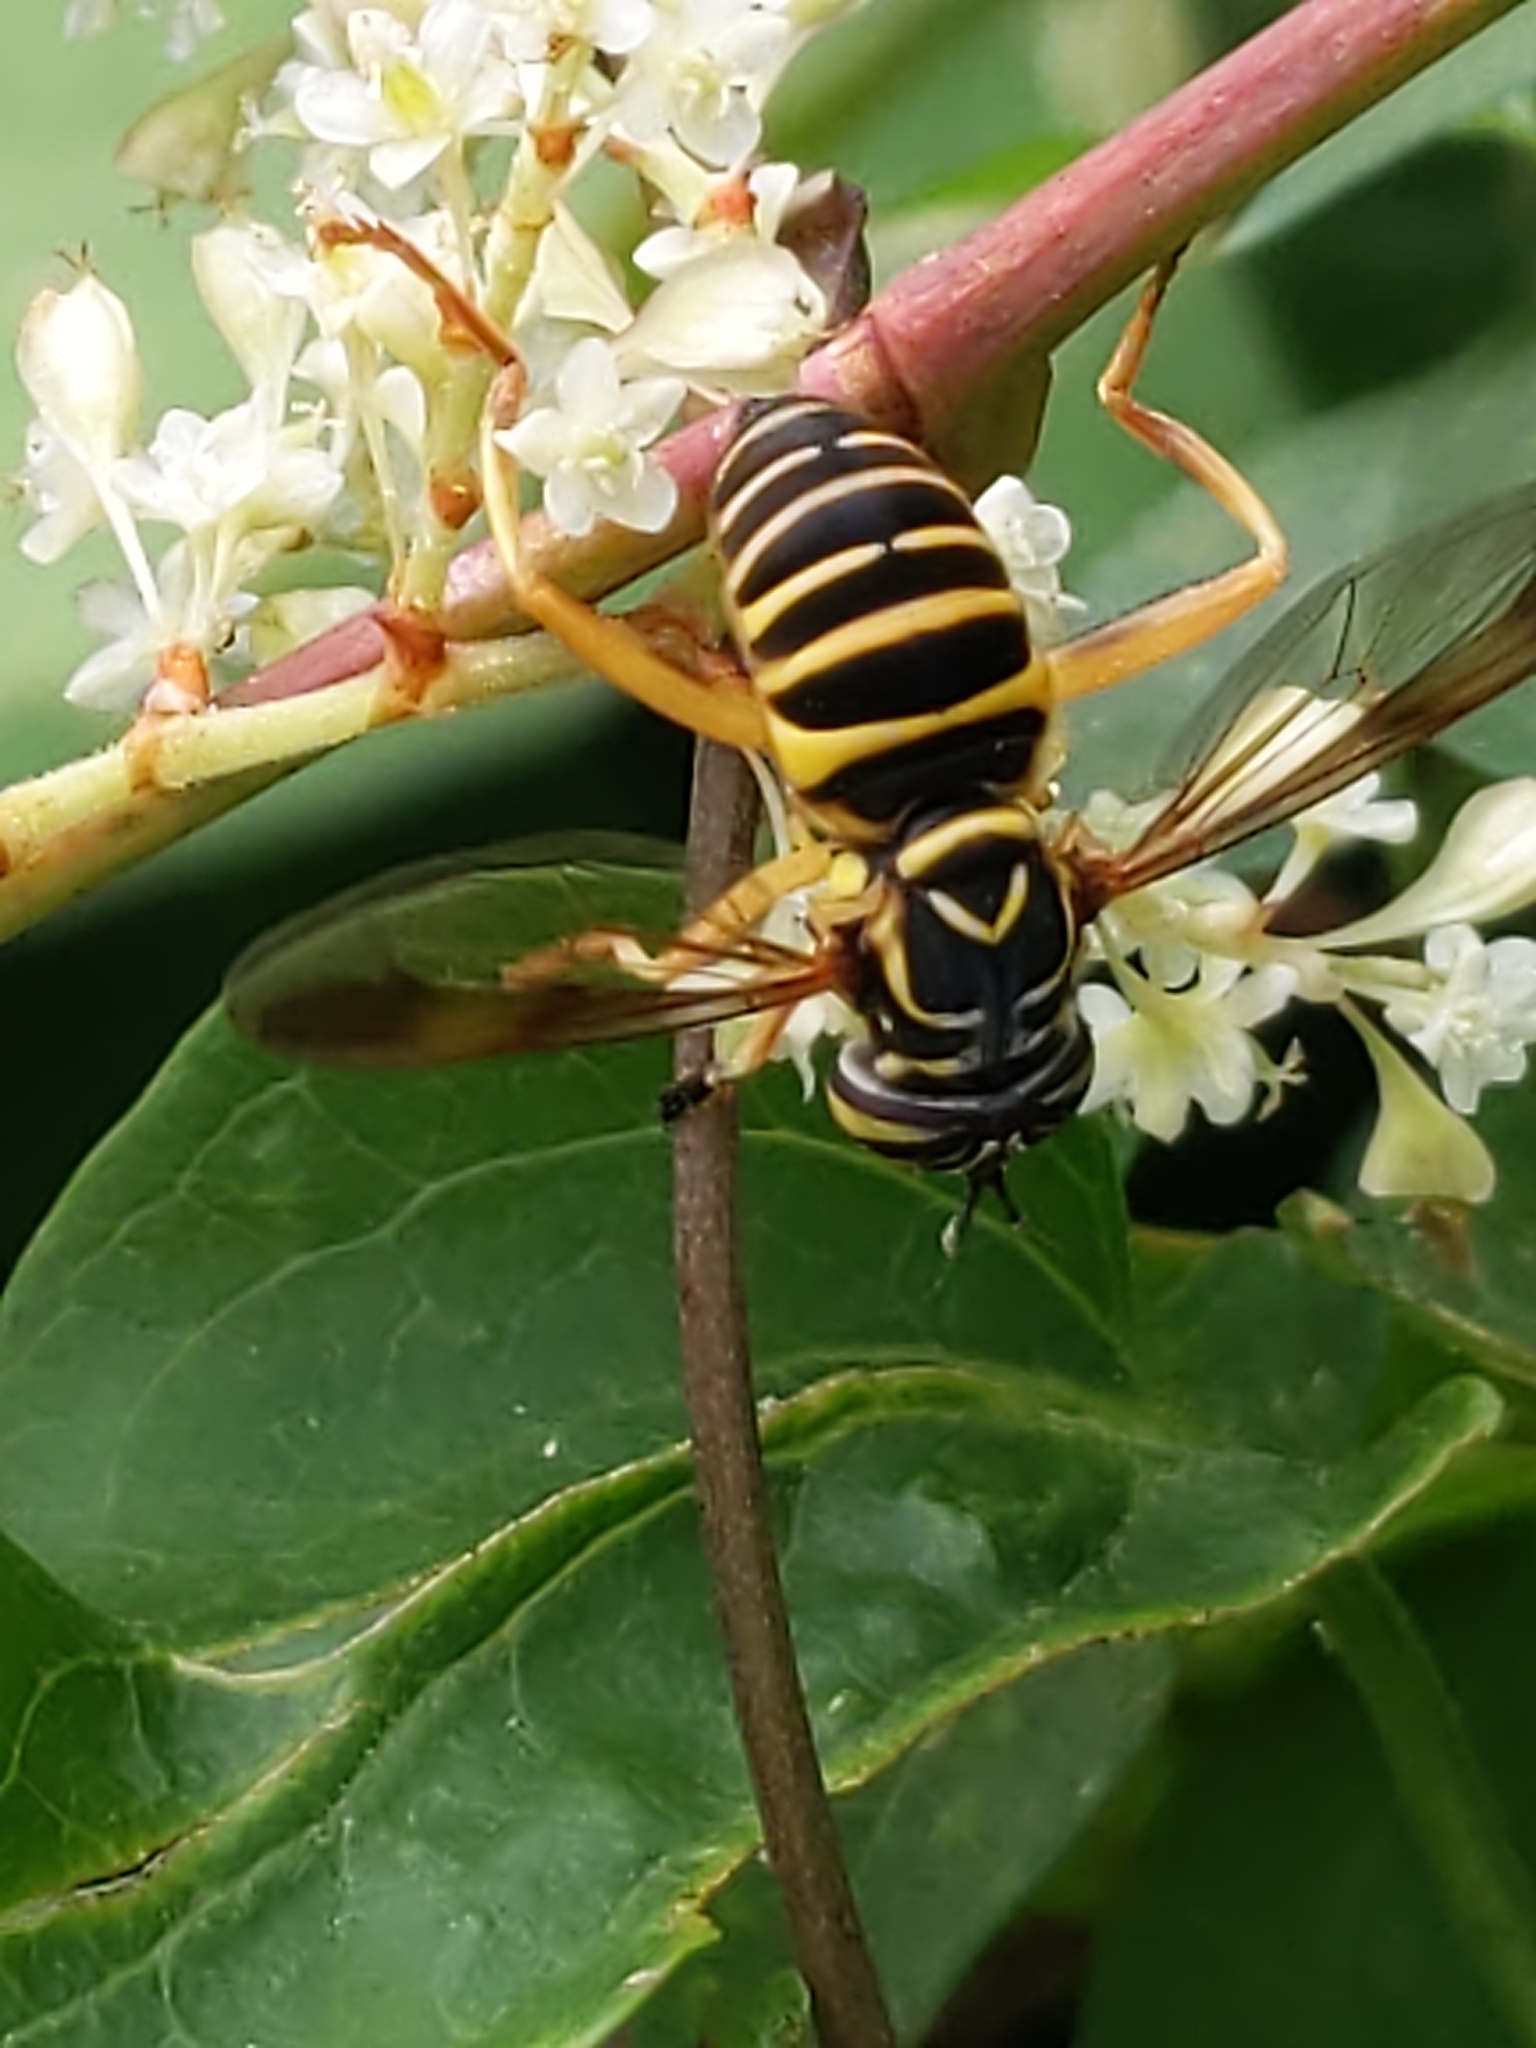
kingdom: Animalia
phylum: Arthropoda
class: Insecta
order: Diptera
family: Syrphidae
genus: Spilomyia
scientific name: Spilomyia longicornis
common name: Eastern hornet fly
